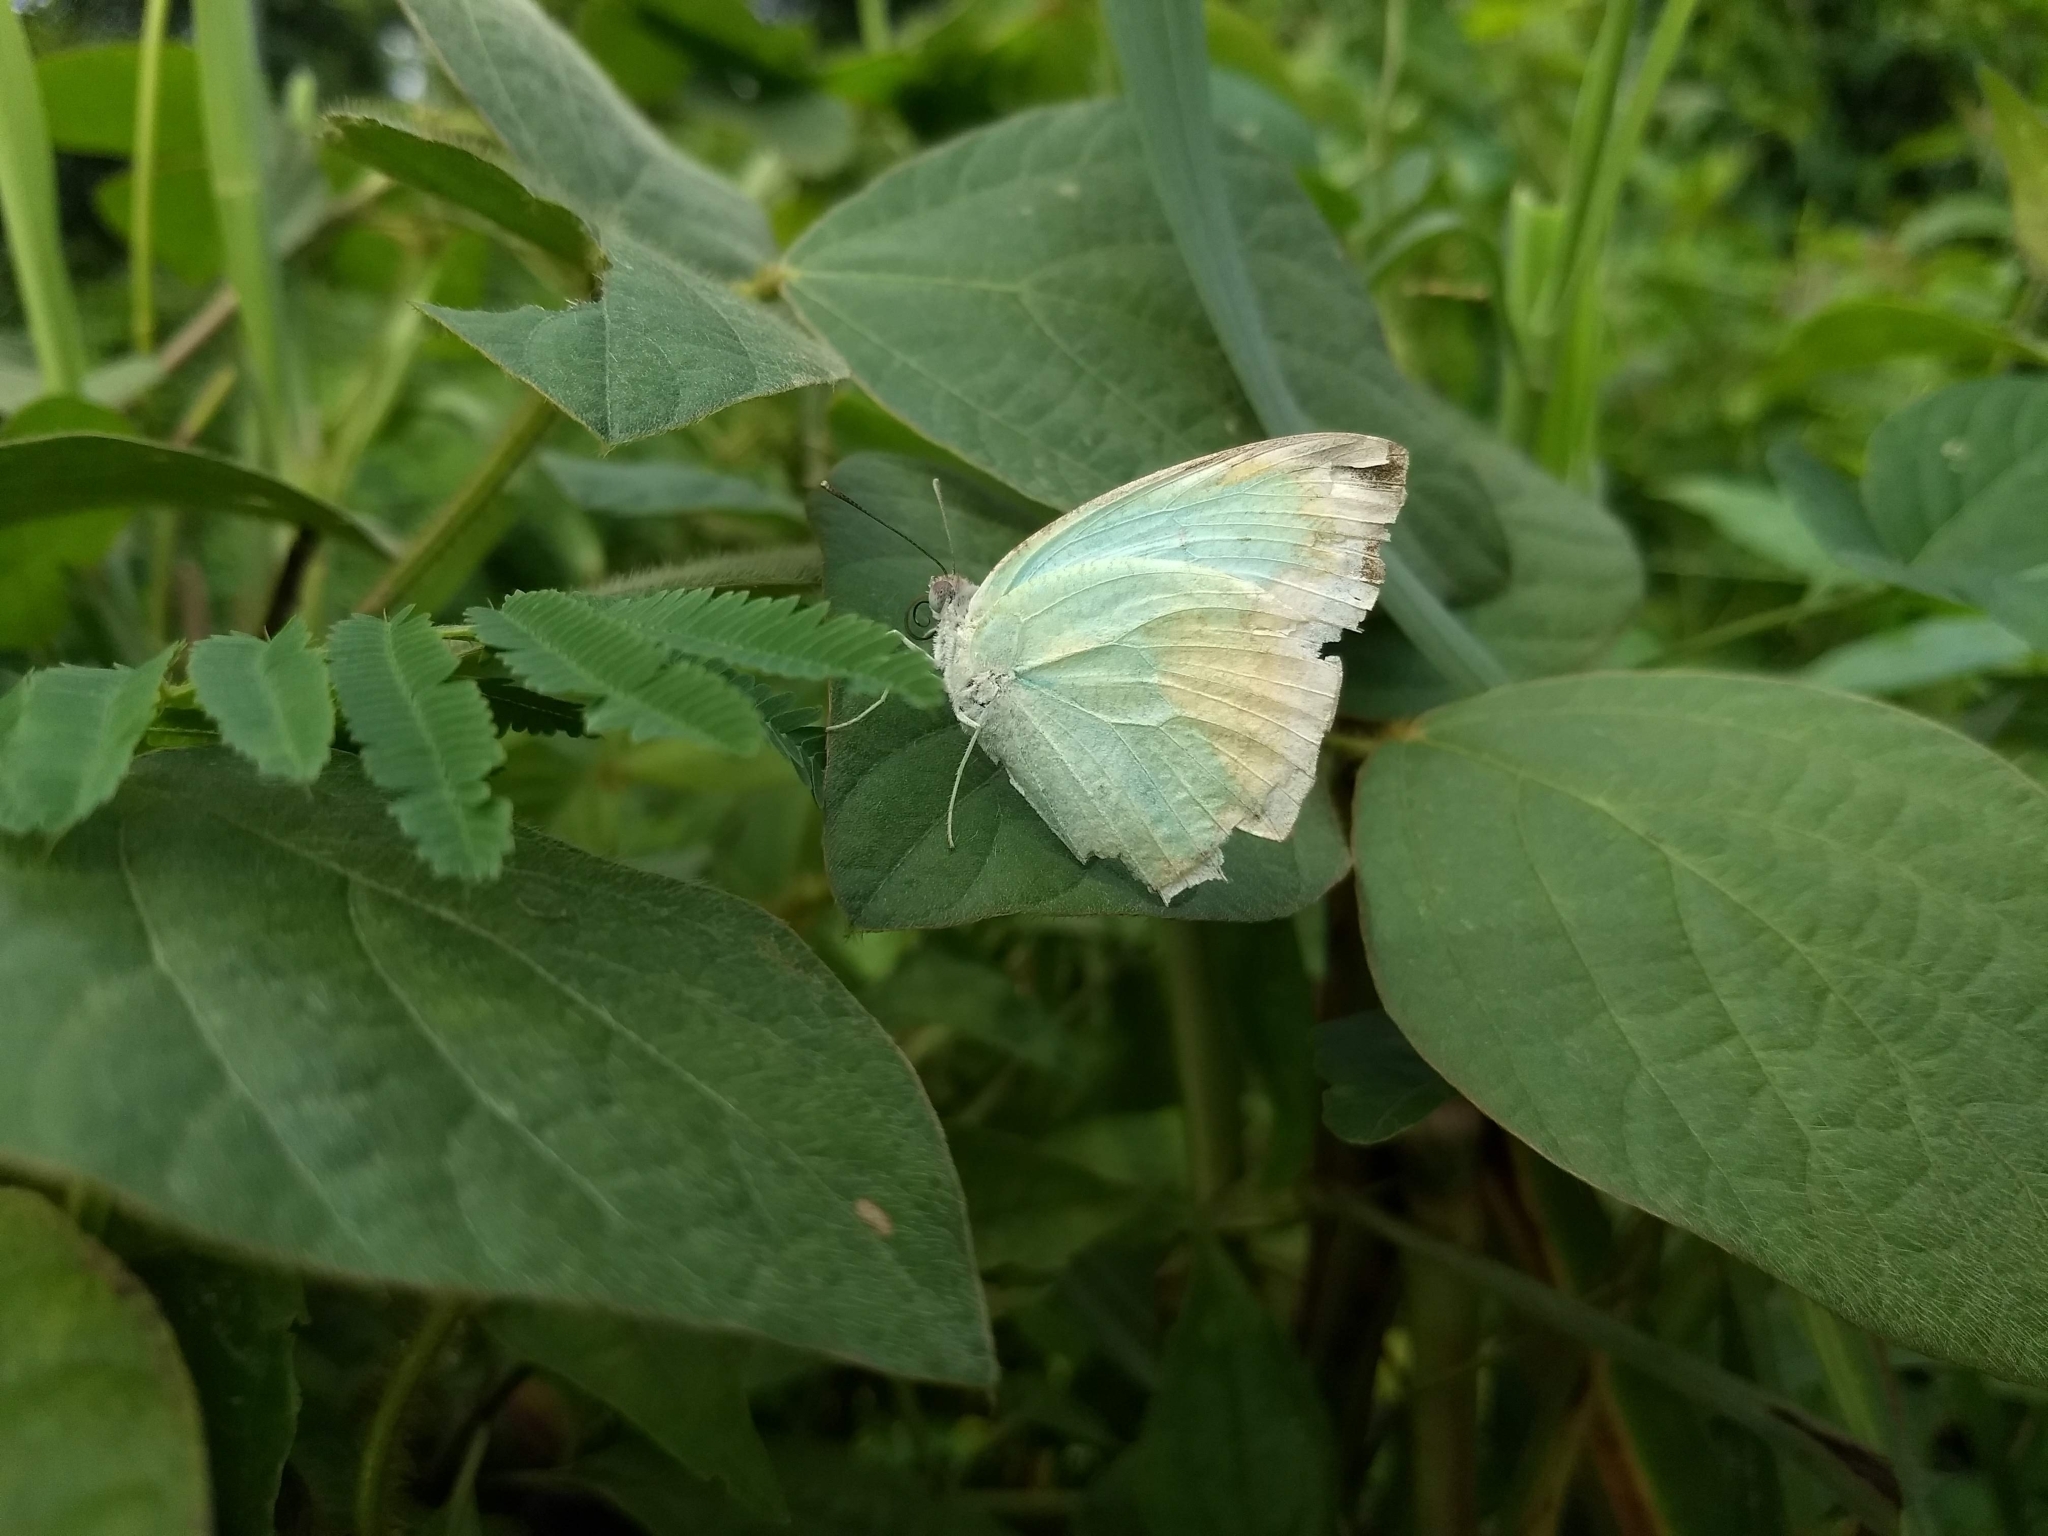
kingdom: Animalia
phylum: Arthropoda
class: Insecta
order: Lepidoptera
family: Pieridae
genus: Catopsilia
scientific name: Catopsilia pyranthe
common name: Mottled emigrant
